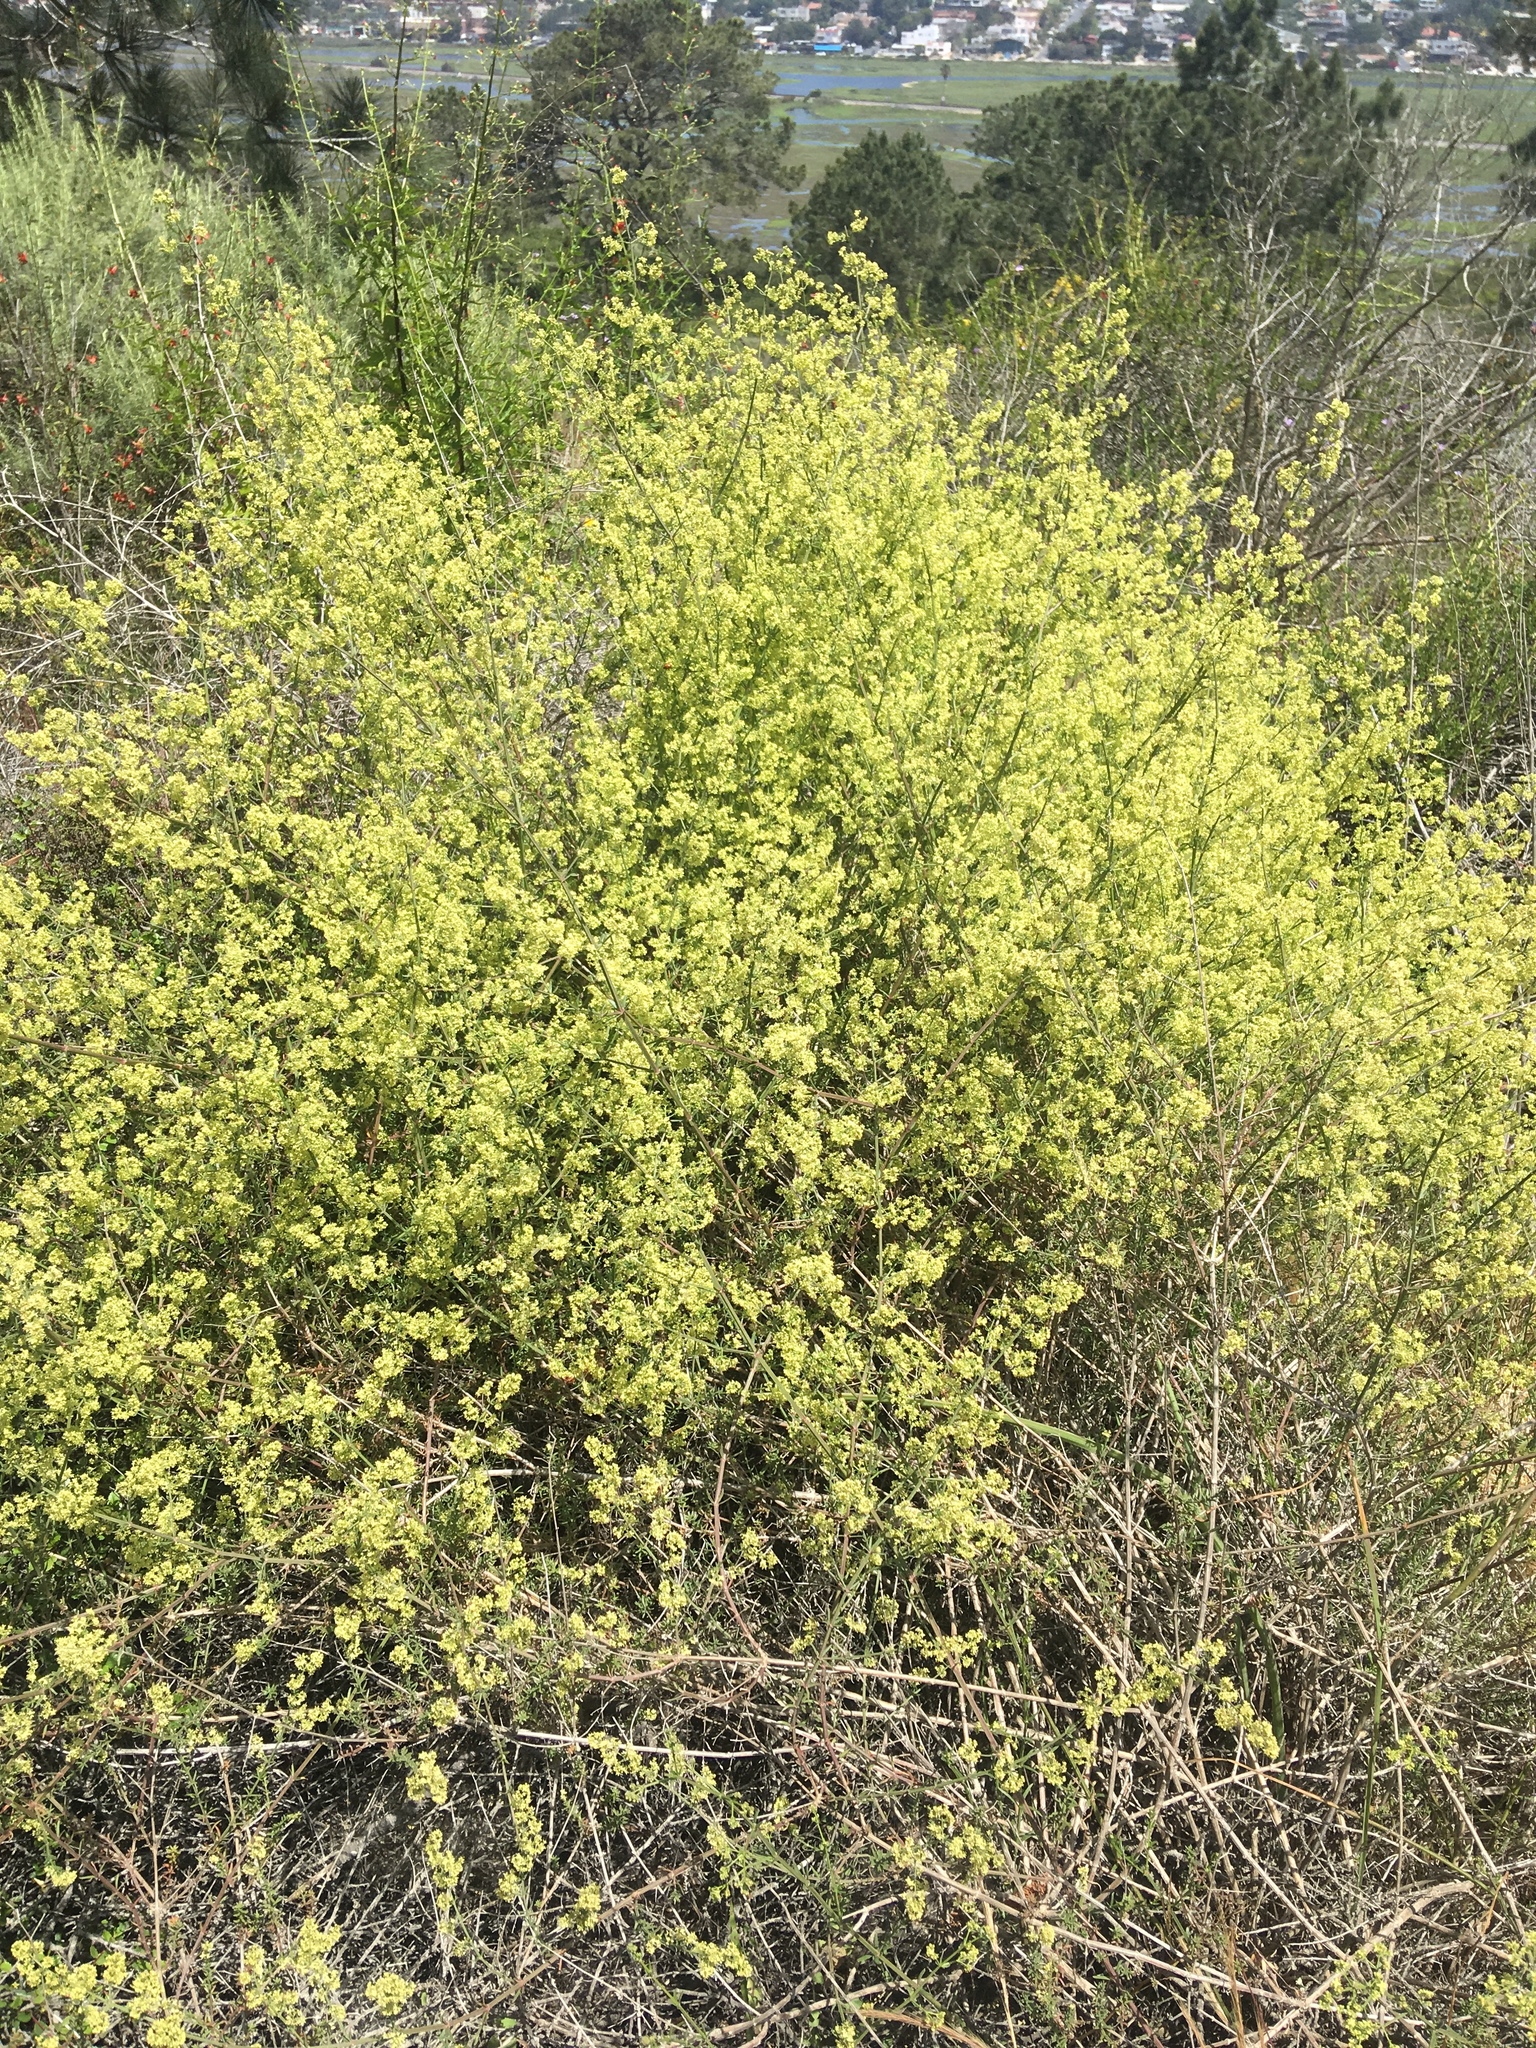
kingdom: Plantae
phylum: Tracheophyta
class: Magnoliopsida
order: Gentianales
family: Rubiaceae
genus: Galium
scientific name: Galium angustifolium
